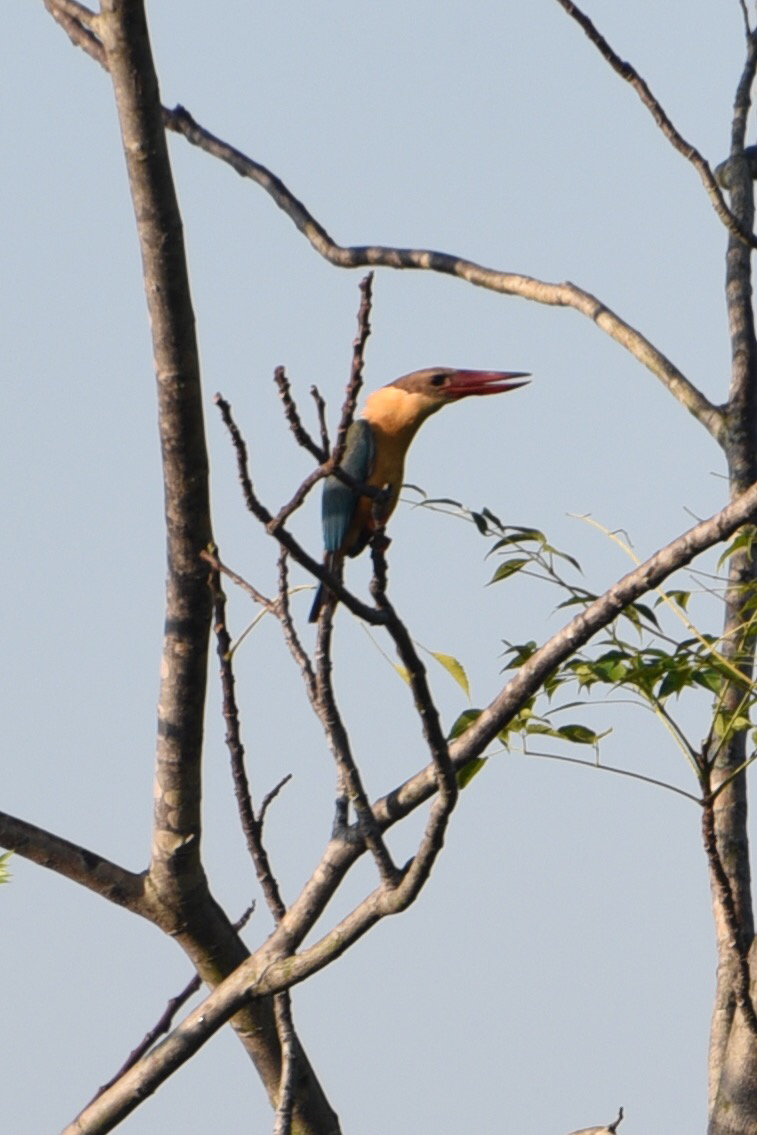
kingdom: Animalia
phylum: Chordata
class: Aves
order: Coraciiformes
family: Alcedinidae
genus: Pelargopsis
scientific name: Pelargopsis capensis
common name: Stork-billed kingfisher
